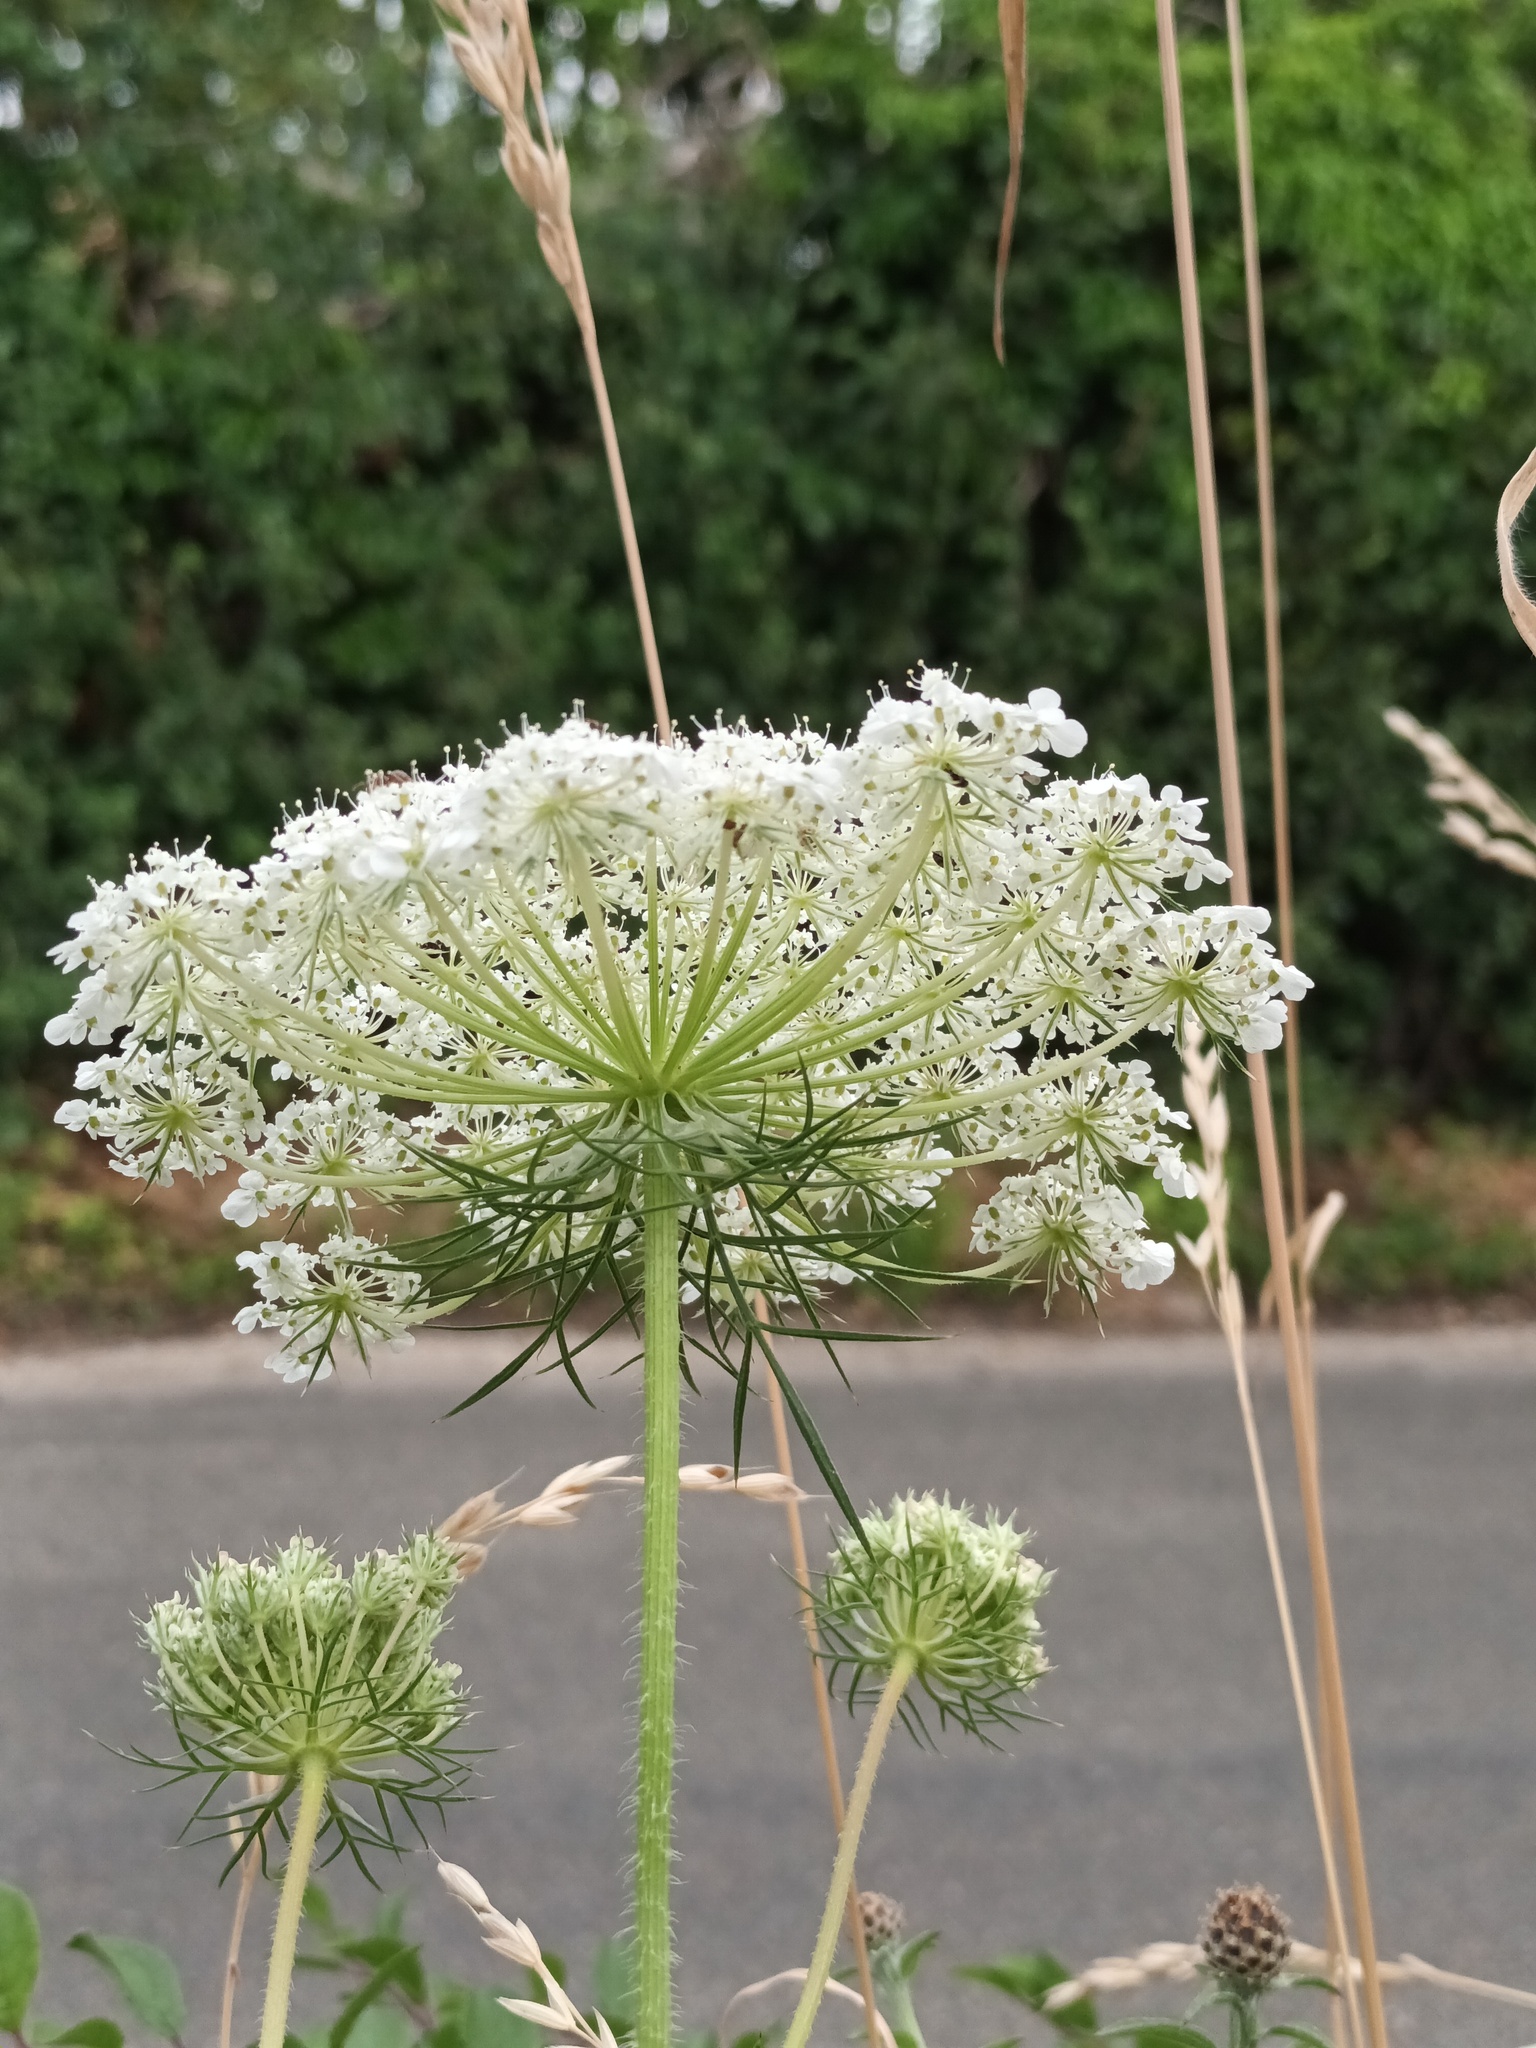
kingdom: Plantae
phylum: Tracheophyta
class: Magnoliopsida
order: Apiales
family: Apiaceae
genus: Daucus
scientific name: Daucus carota
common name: Wild carrot
